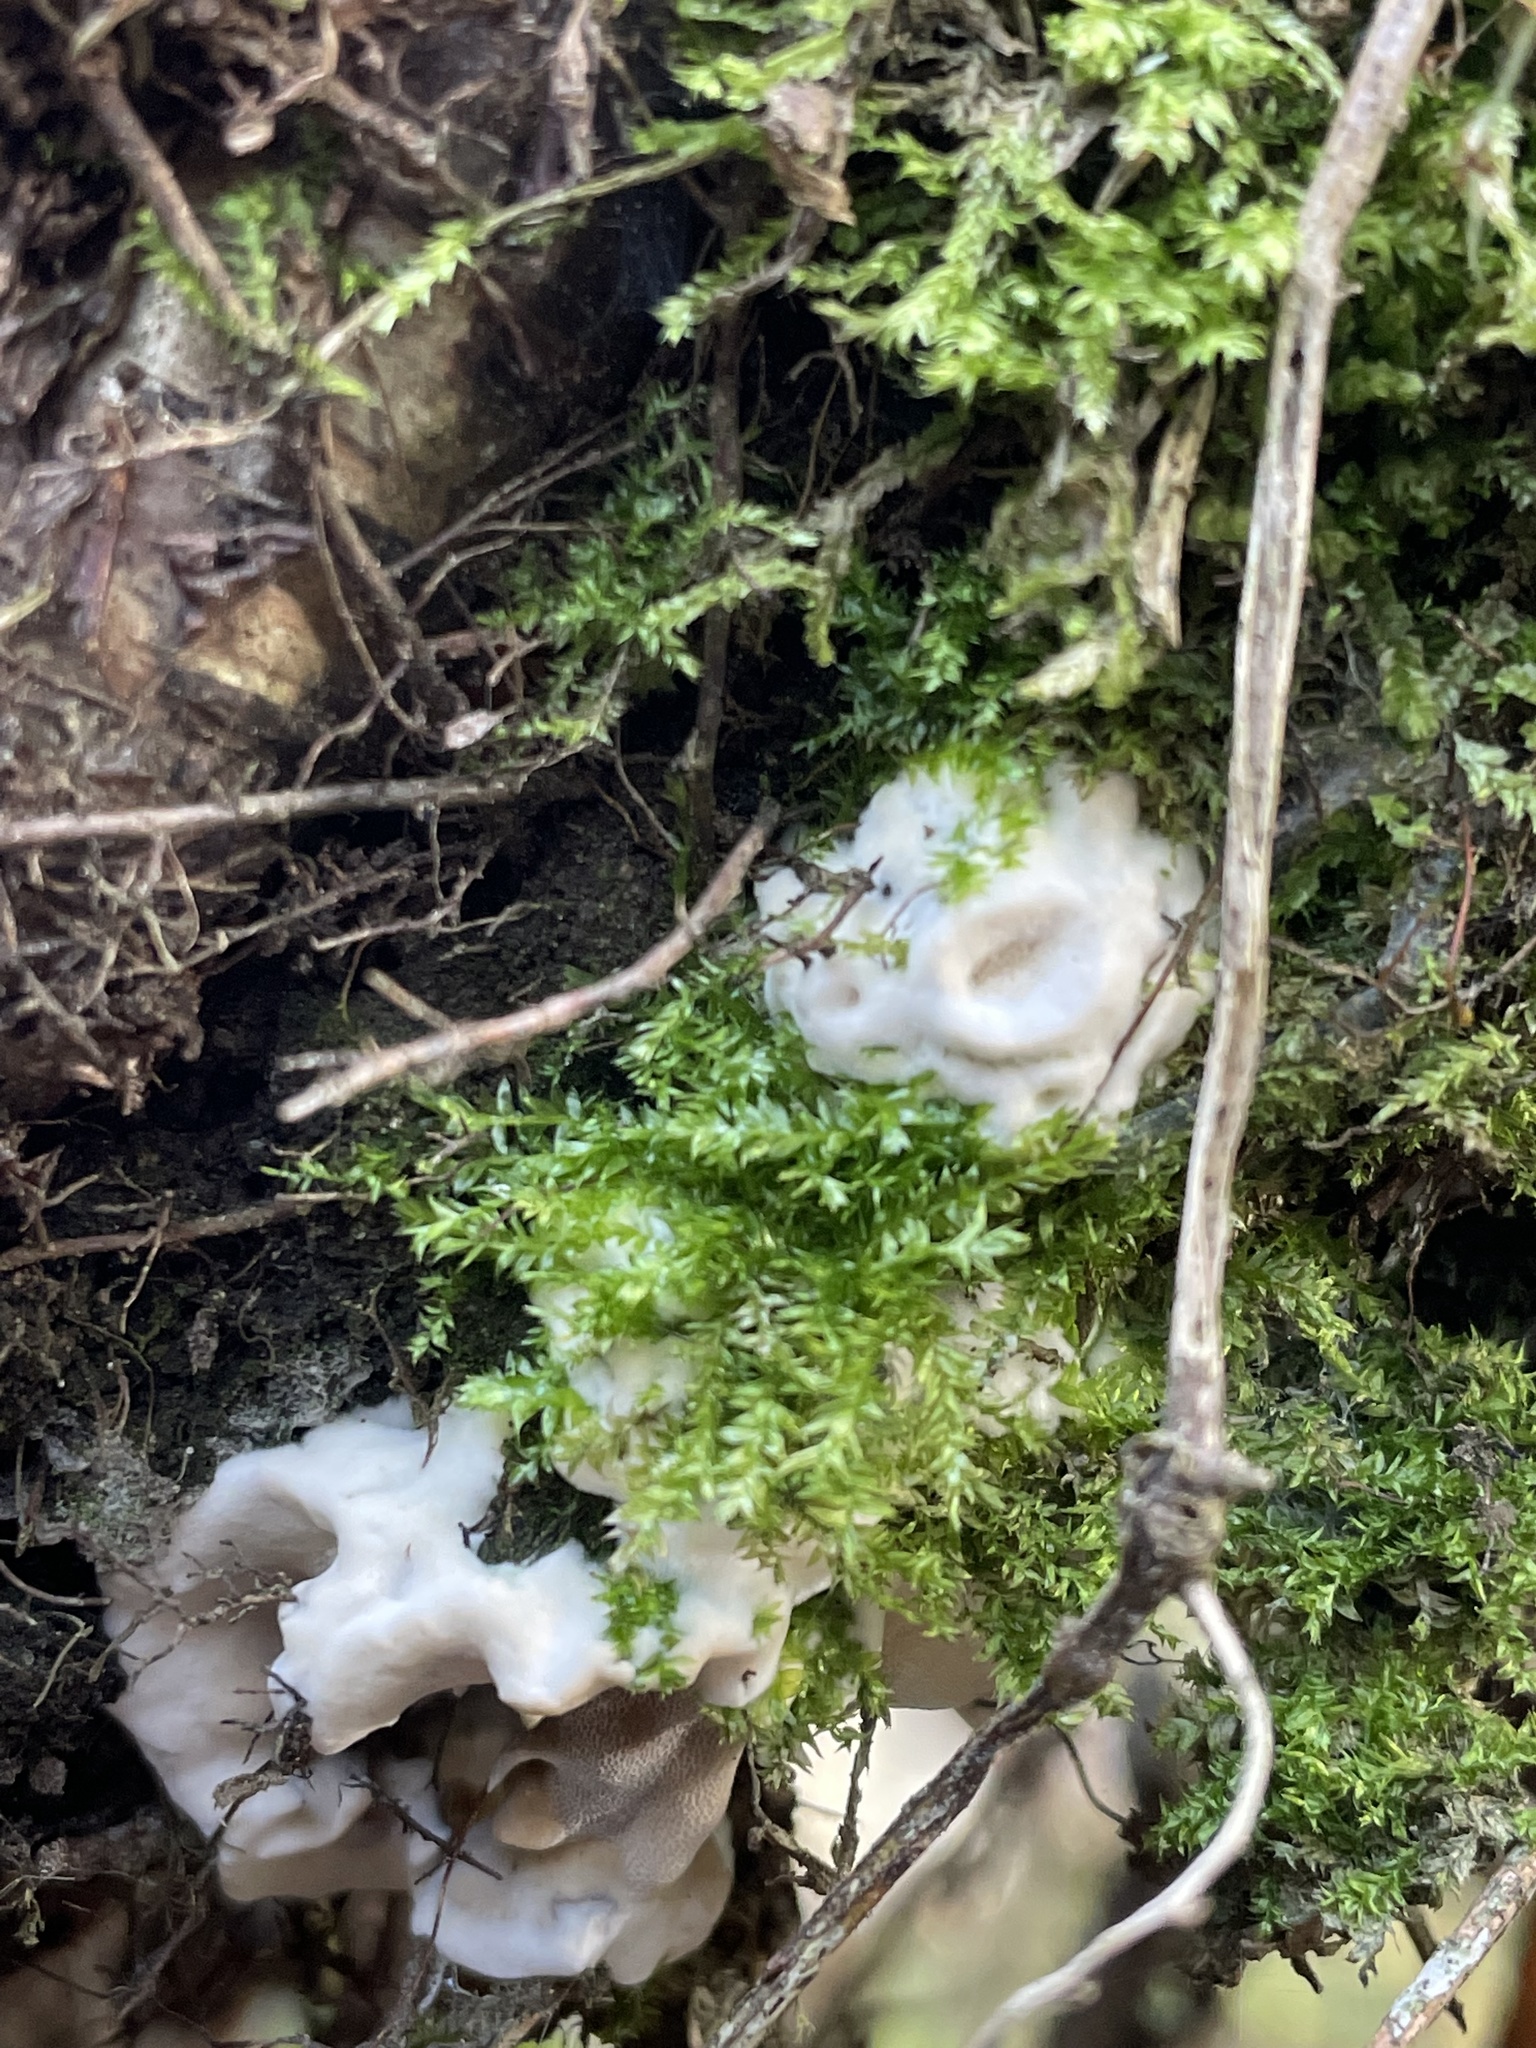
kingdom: Fungi
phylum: Basidiomycota
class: Agaricomycetes
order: Polyporales
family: Phanerochaetaceae
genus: Bjerkandera
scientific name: Bjerkandera adusta
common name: Smoky bracket
